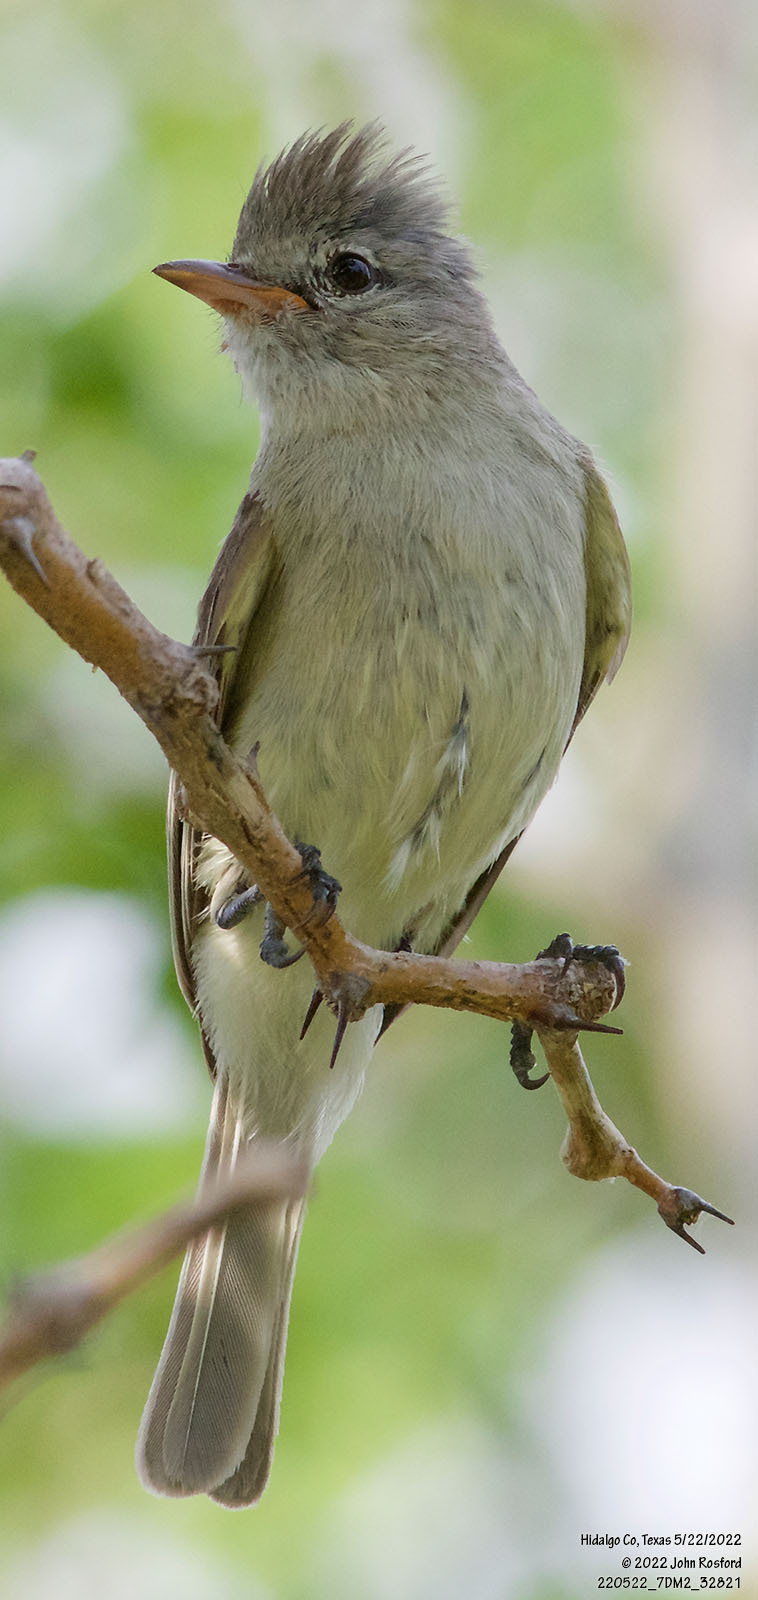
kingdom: Animalia
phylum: Chordata
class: Aves
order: Passeriformes
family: Tyrannidae
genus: Camptostoma
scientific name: Camptostoma imberbe
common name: Northern beardless-tyrannulet
